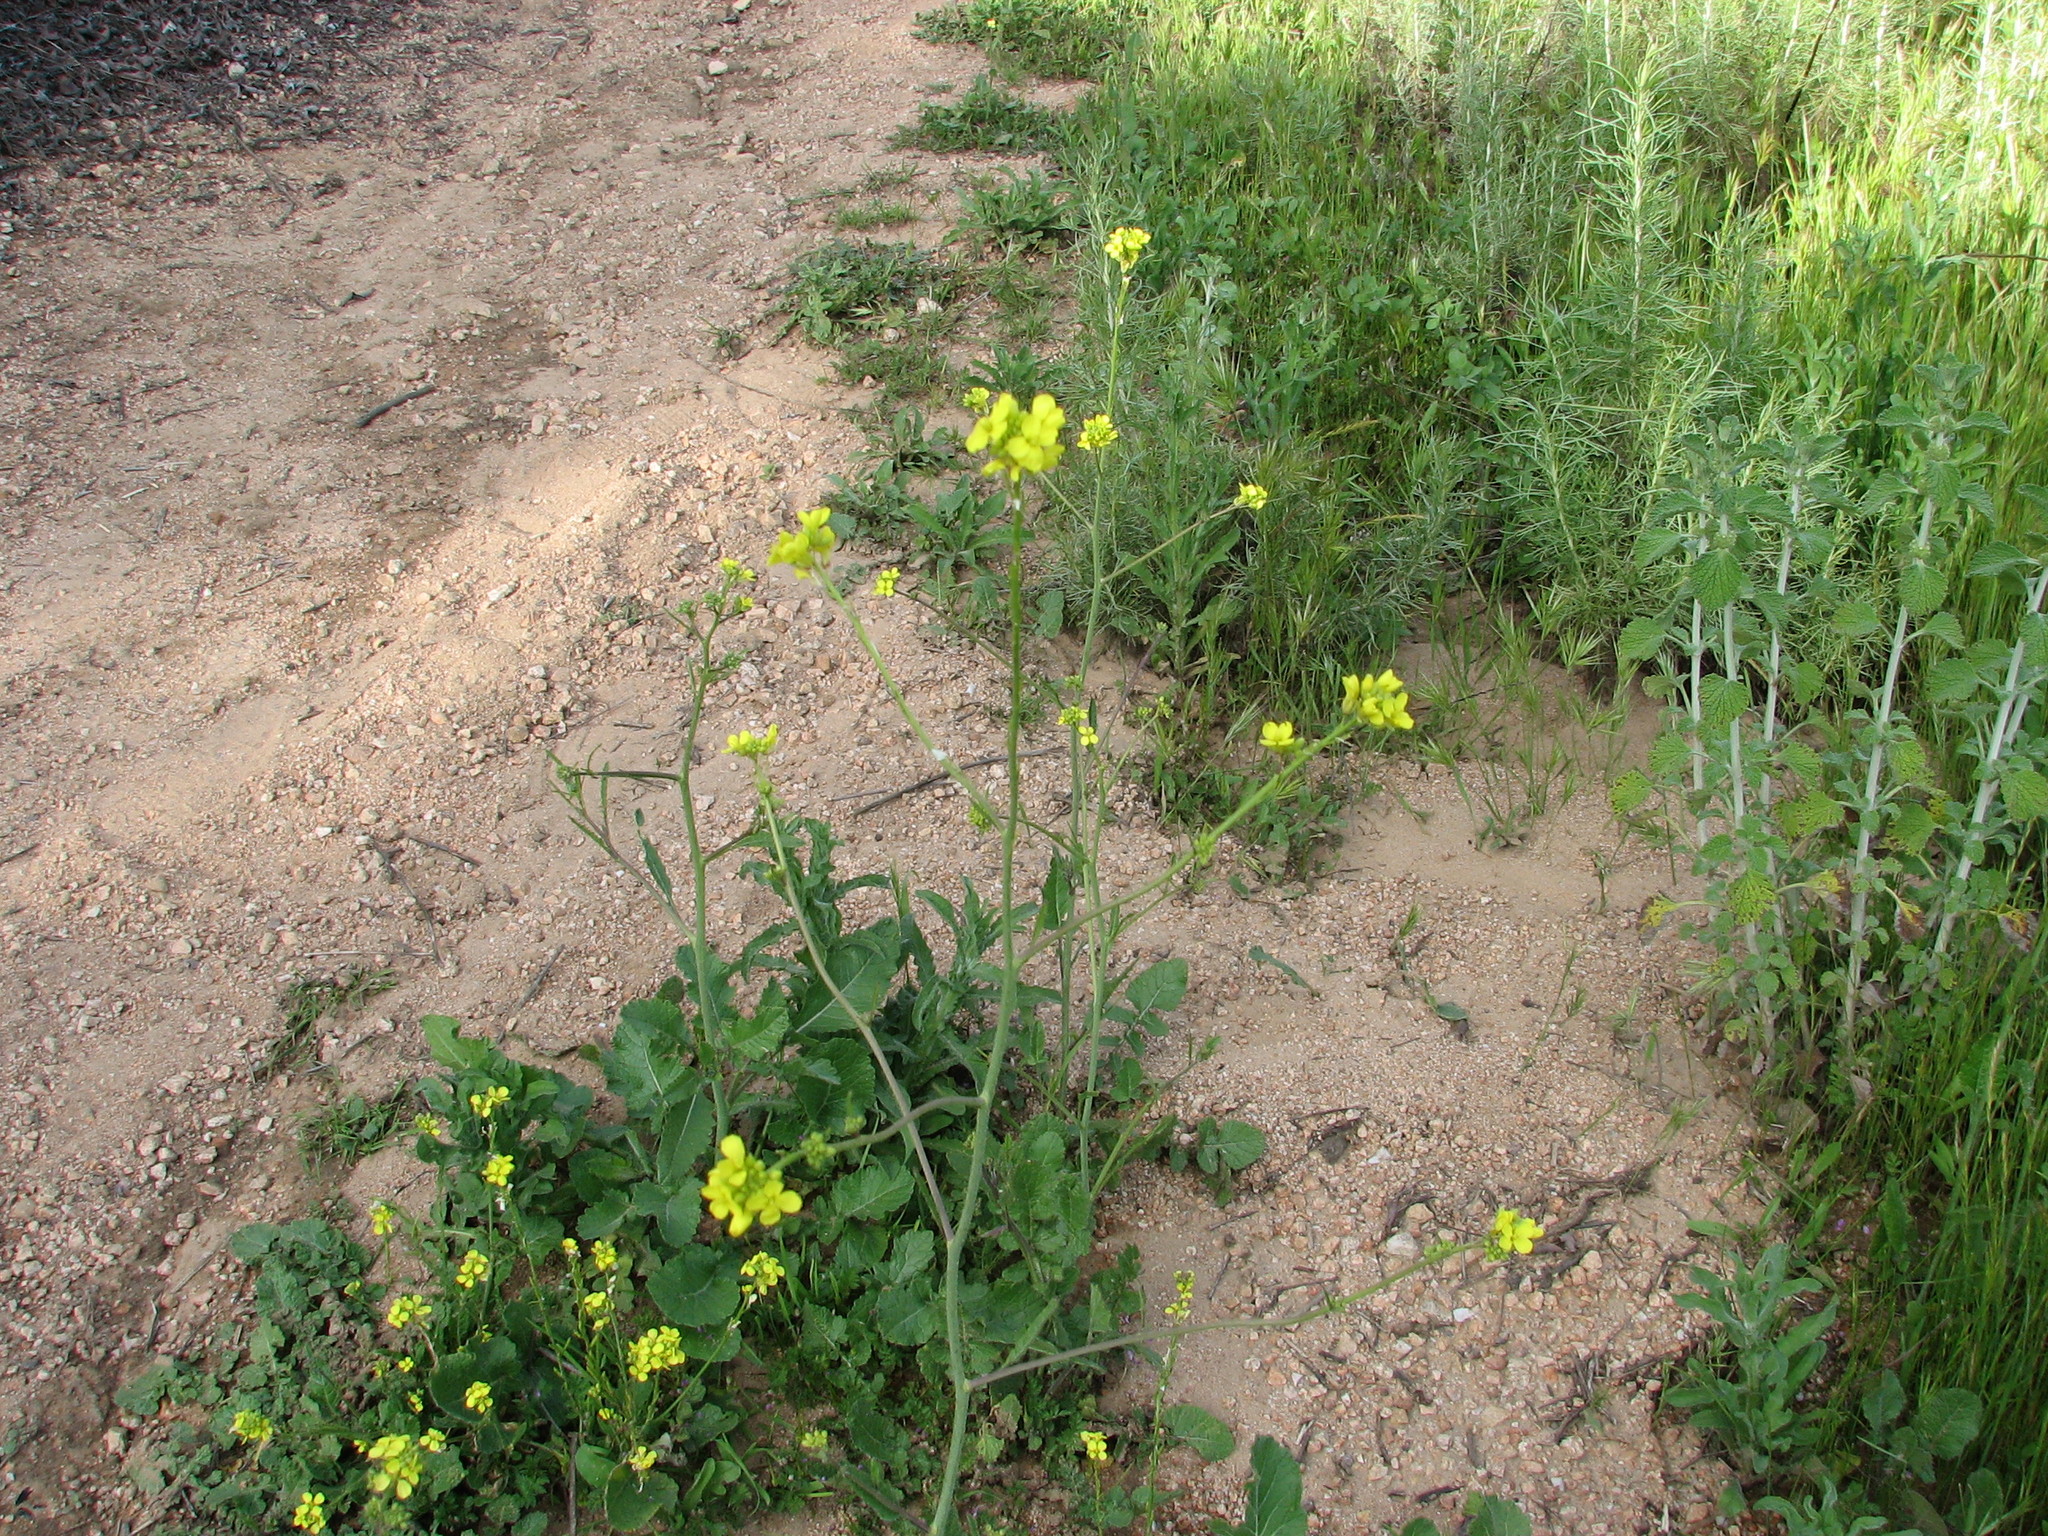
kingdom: Plantae
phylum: Tracheophyta
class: Magnoliopsida
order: Brassicales
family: Brassicaceae
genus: Hirschfeldia
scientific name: Hirschfeldia incana
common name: Hoary mustard
